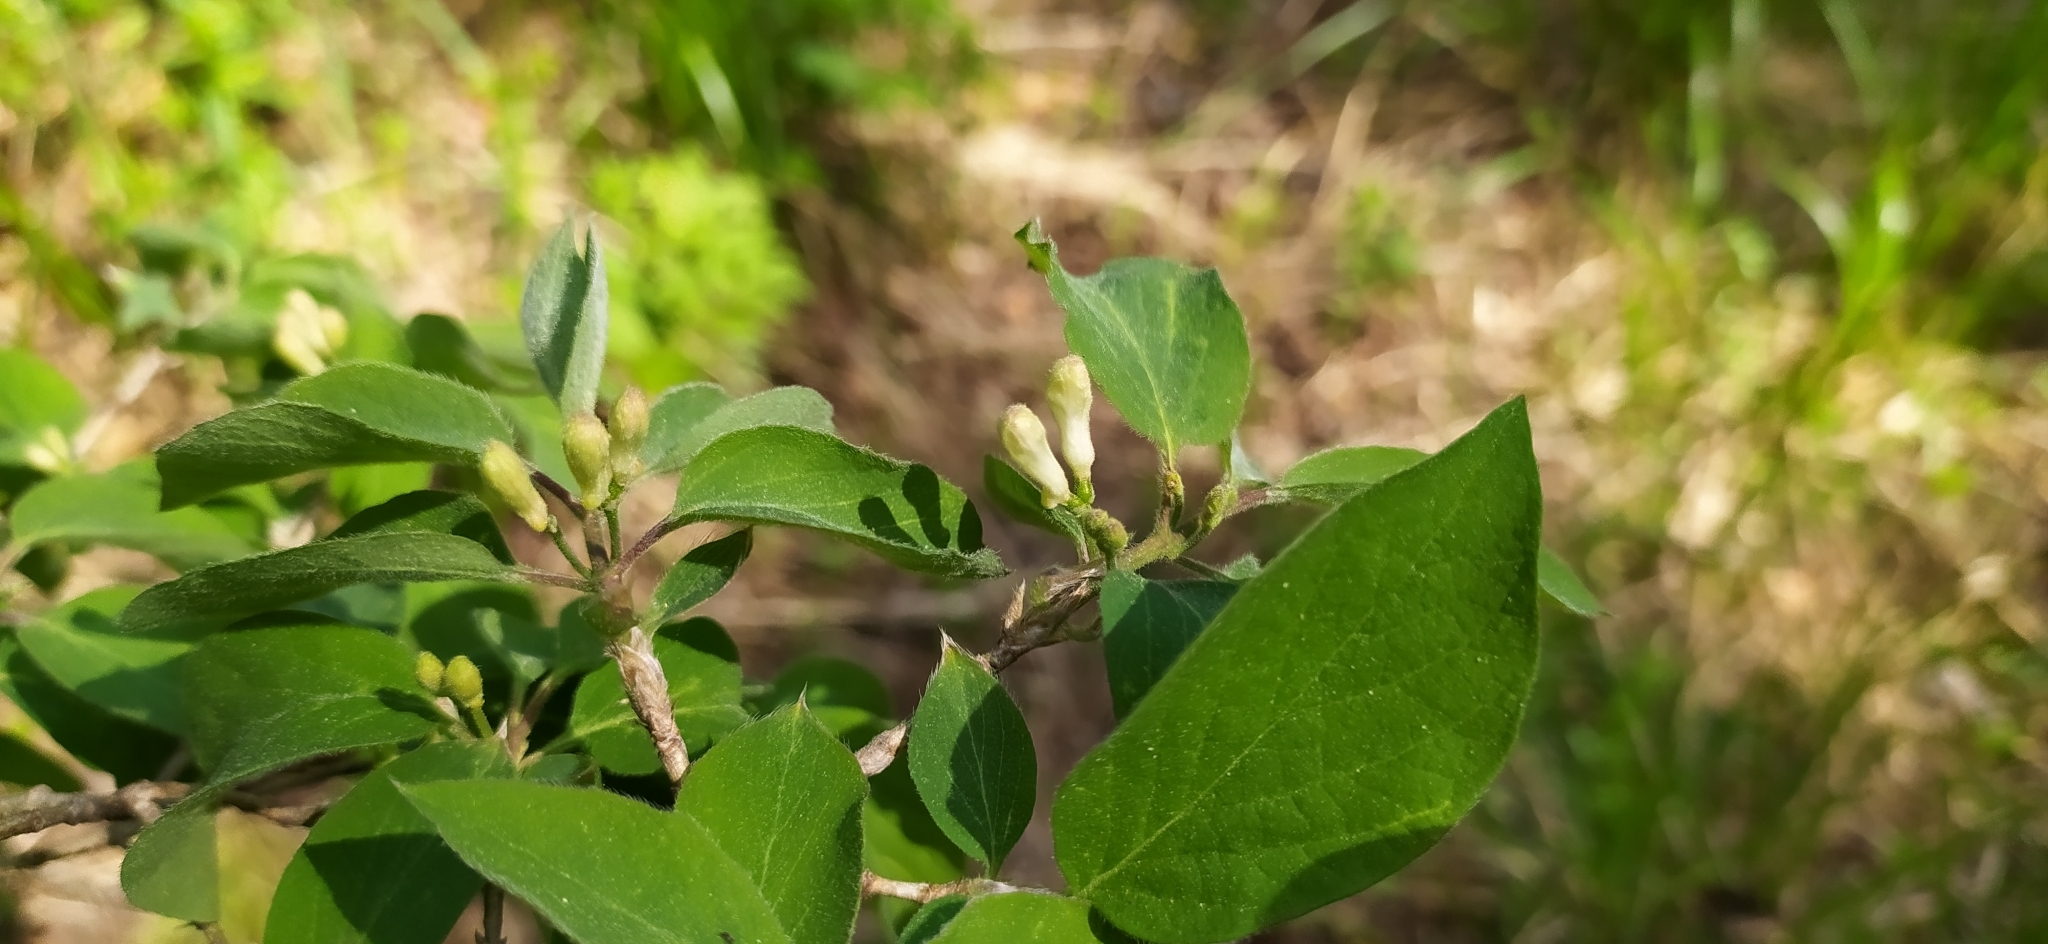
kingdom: Plantae
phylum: Tracheophyta
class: Magnoliopsida
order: Dipsacales
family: Caprifoliaceae
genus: Lonicera
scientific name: Lonicera xylosteum
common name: Fly honeysuckle
